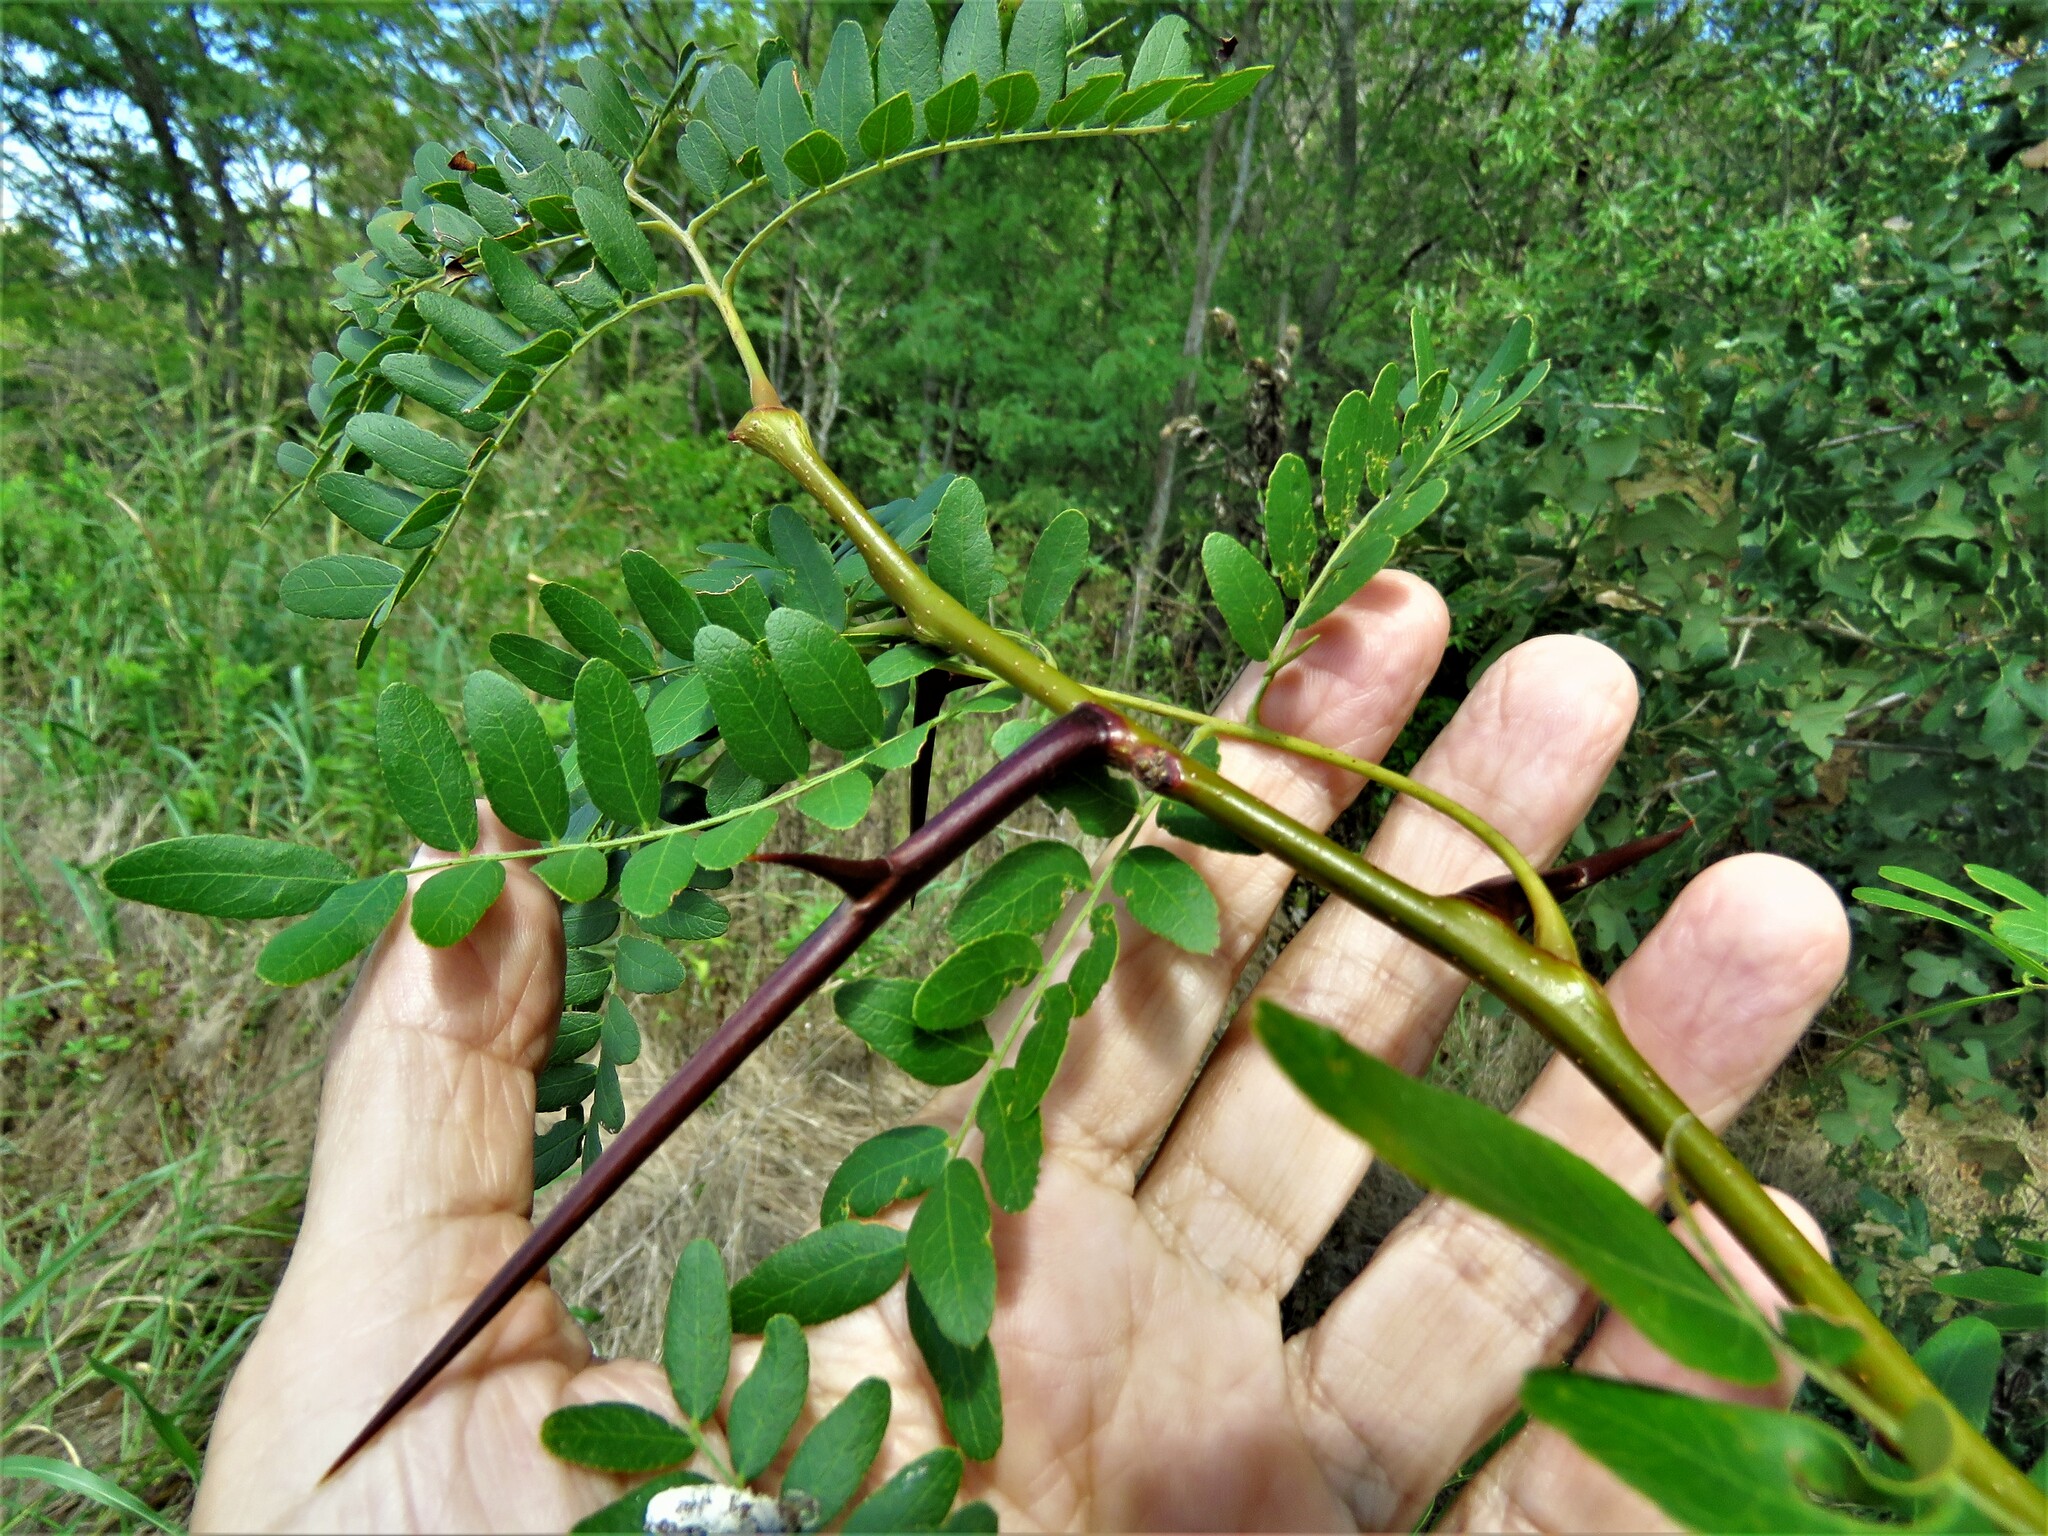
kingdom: Plantae
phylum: Tracheophyta
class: Magnoliopsida
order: Fabales
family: Fabaceae
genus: Gleditsia
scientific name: Gleditsia triacanthos
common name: Common honeylocust
